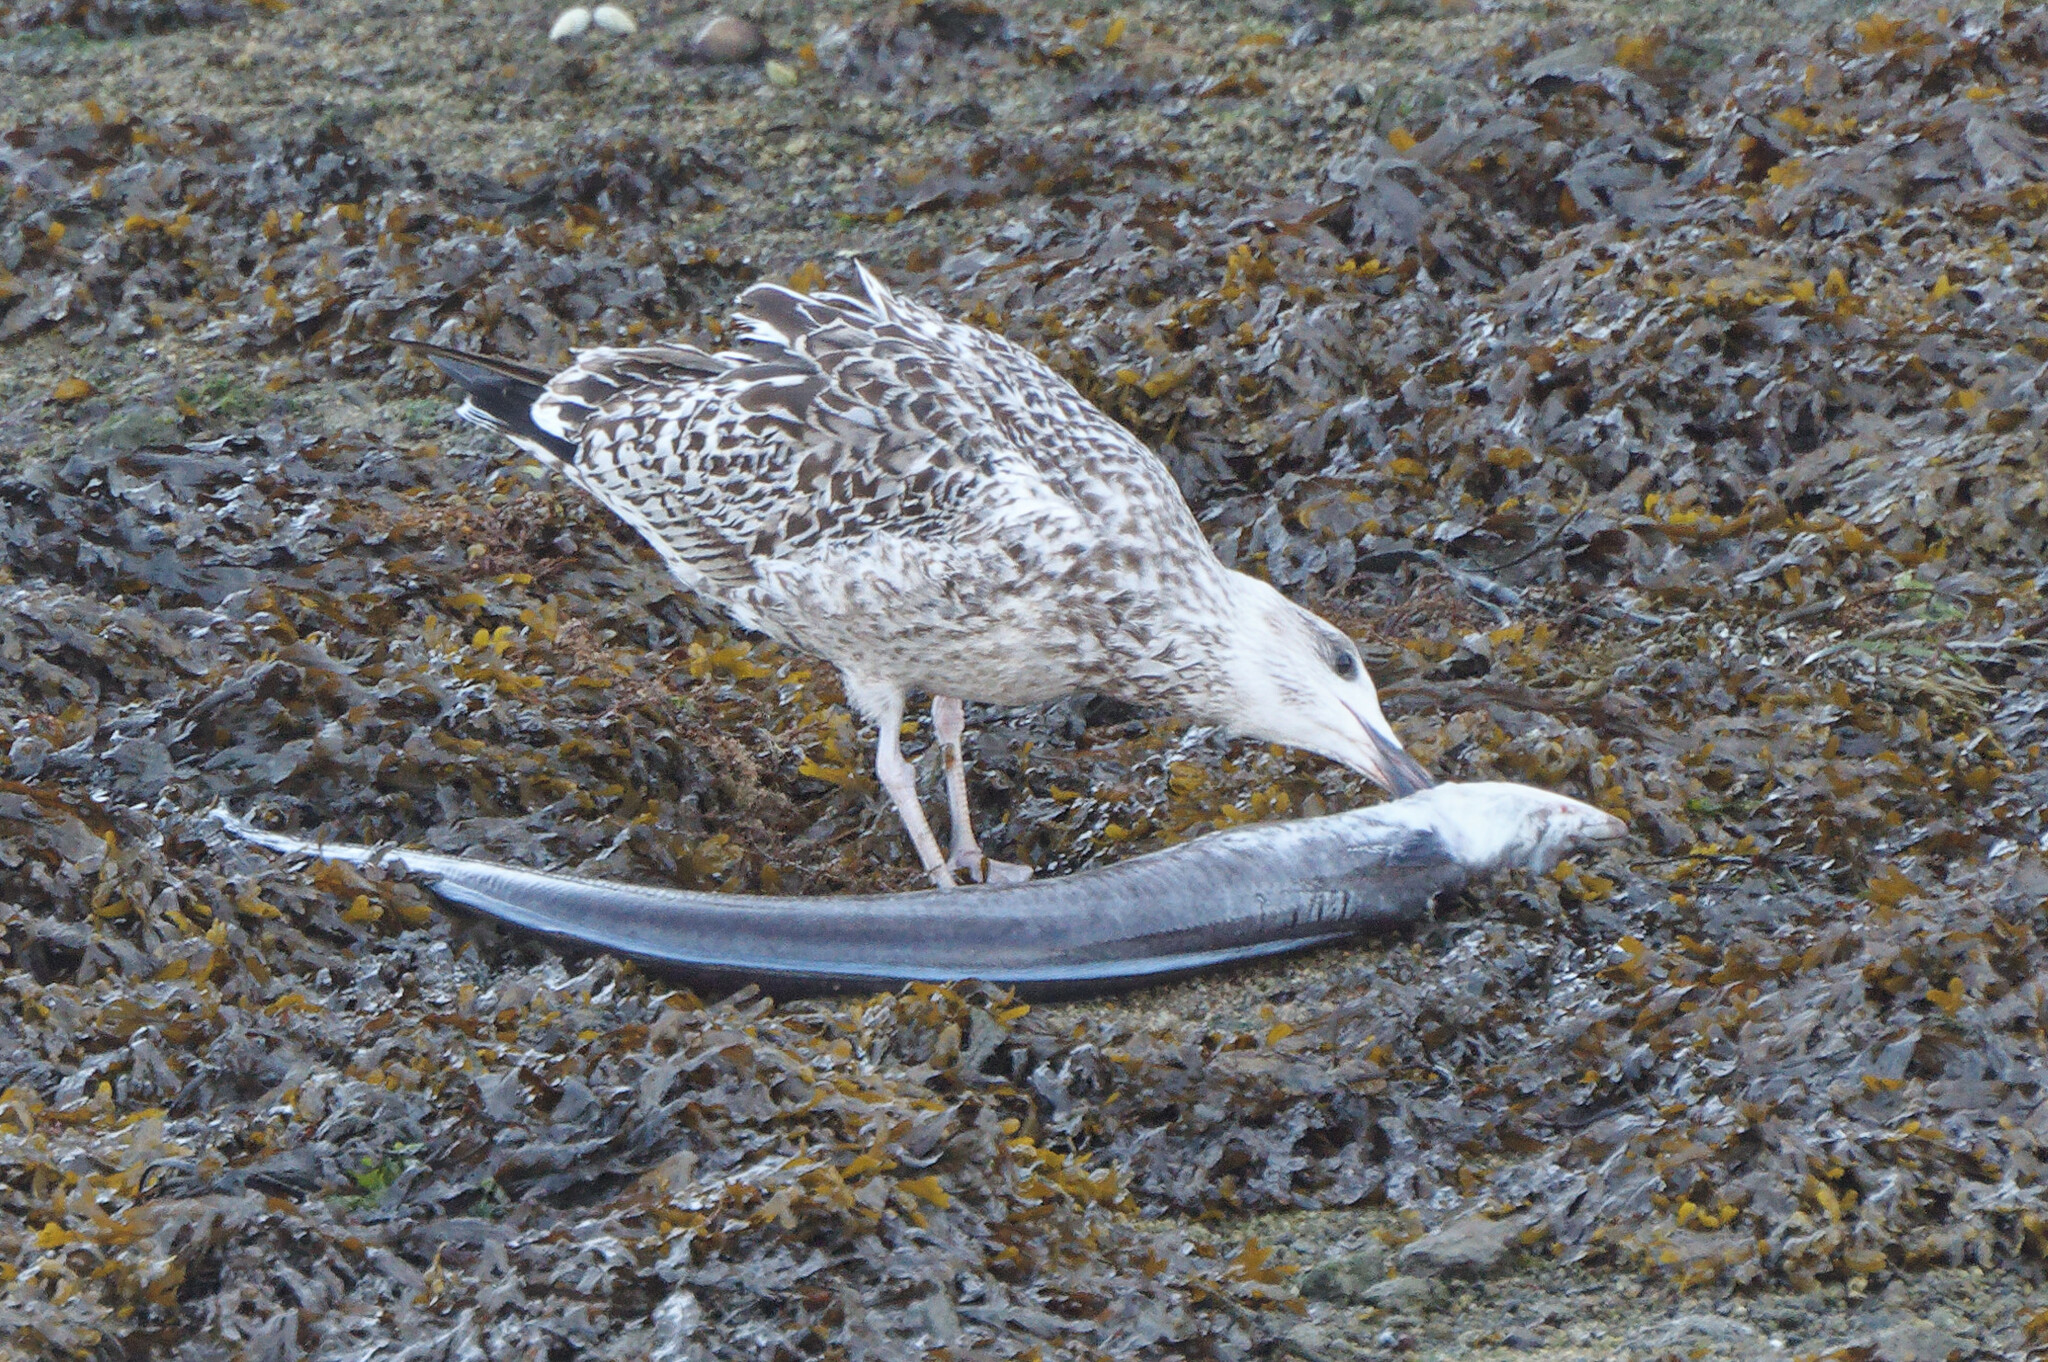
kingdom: Animalia
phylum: Chordata
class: Aves
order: Charadriiformes
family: Laridae
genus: Larus
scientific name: Larus marinus
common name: Great black-backed gull
